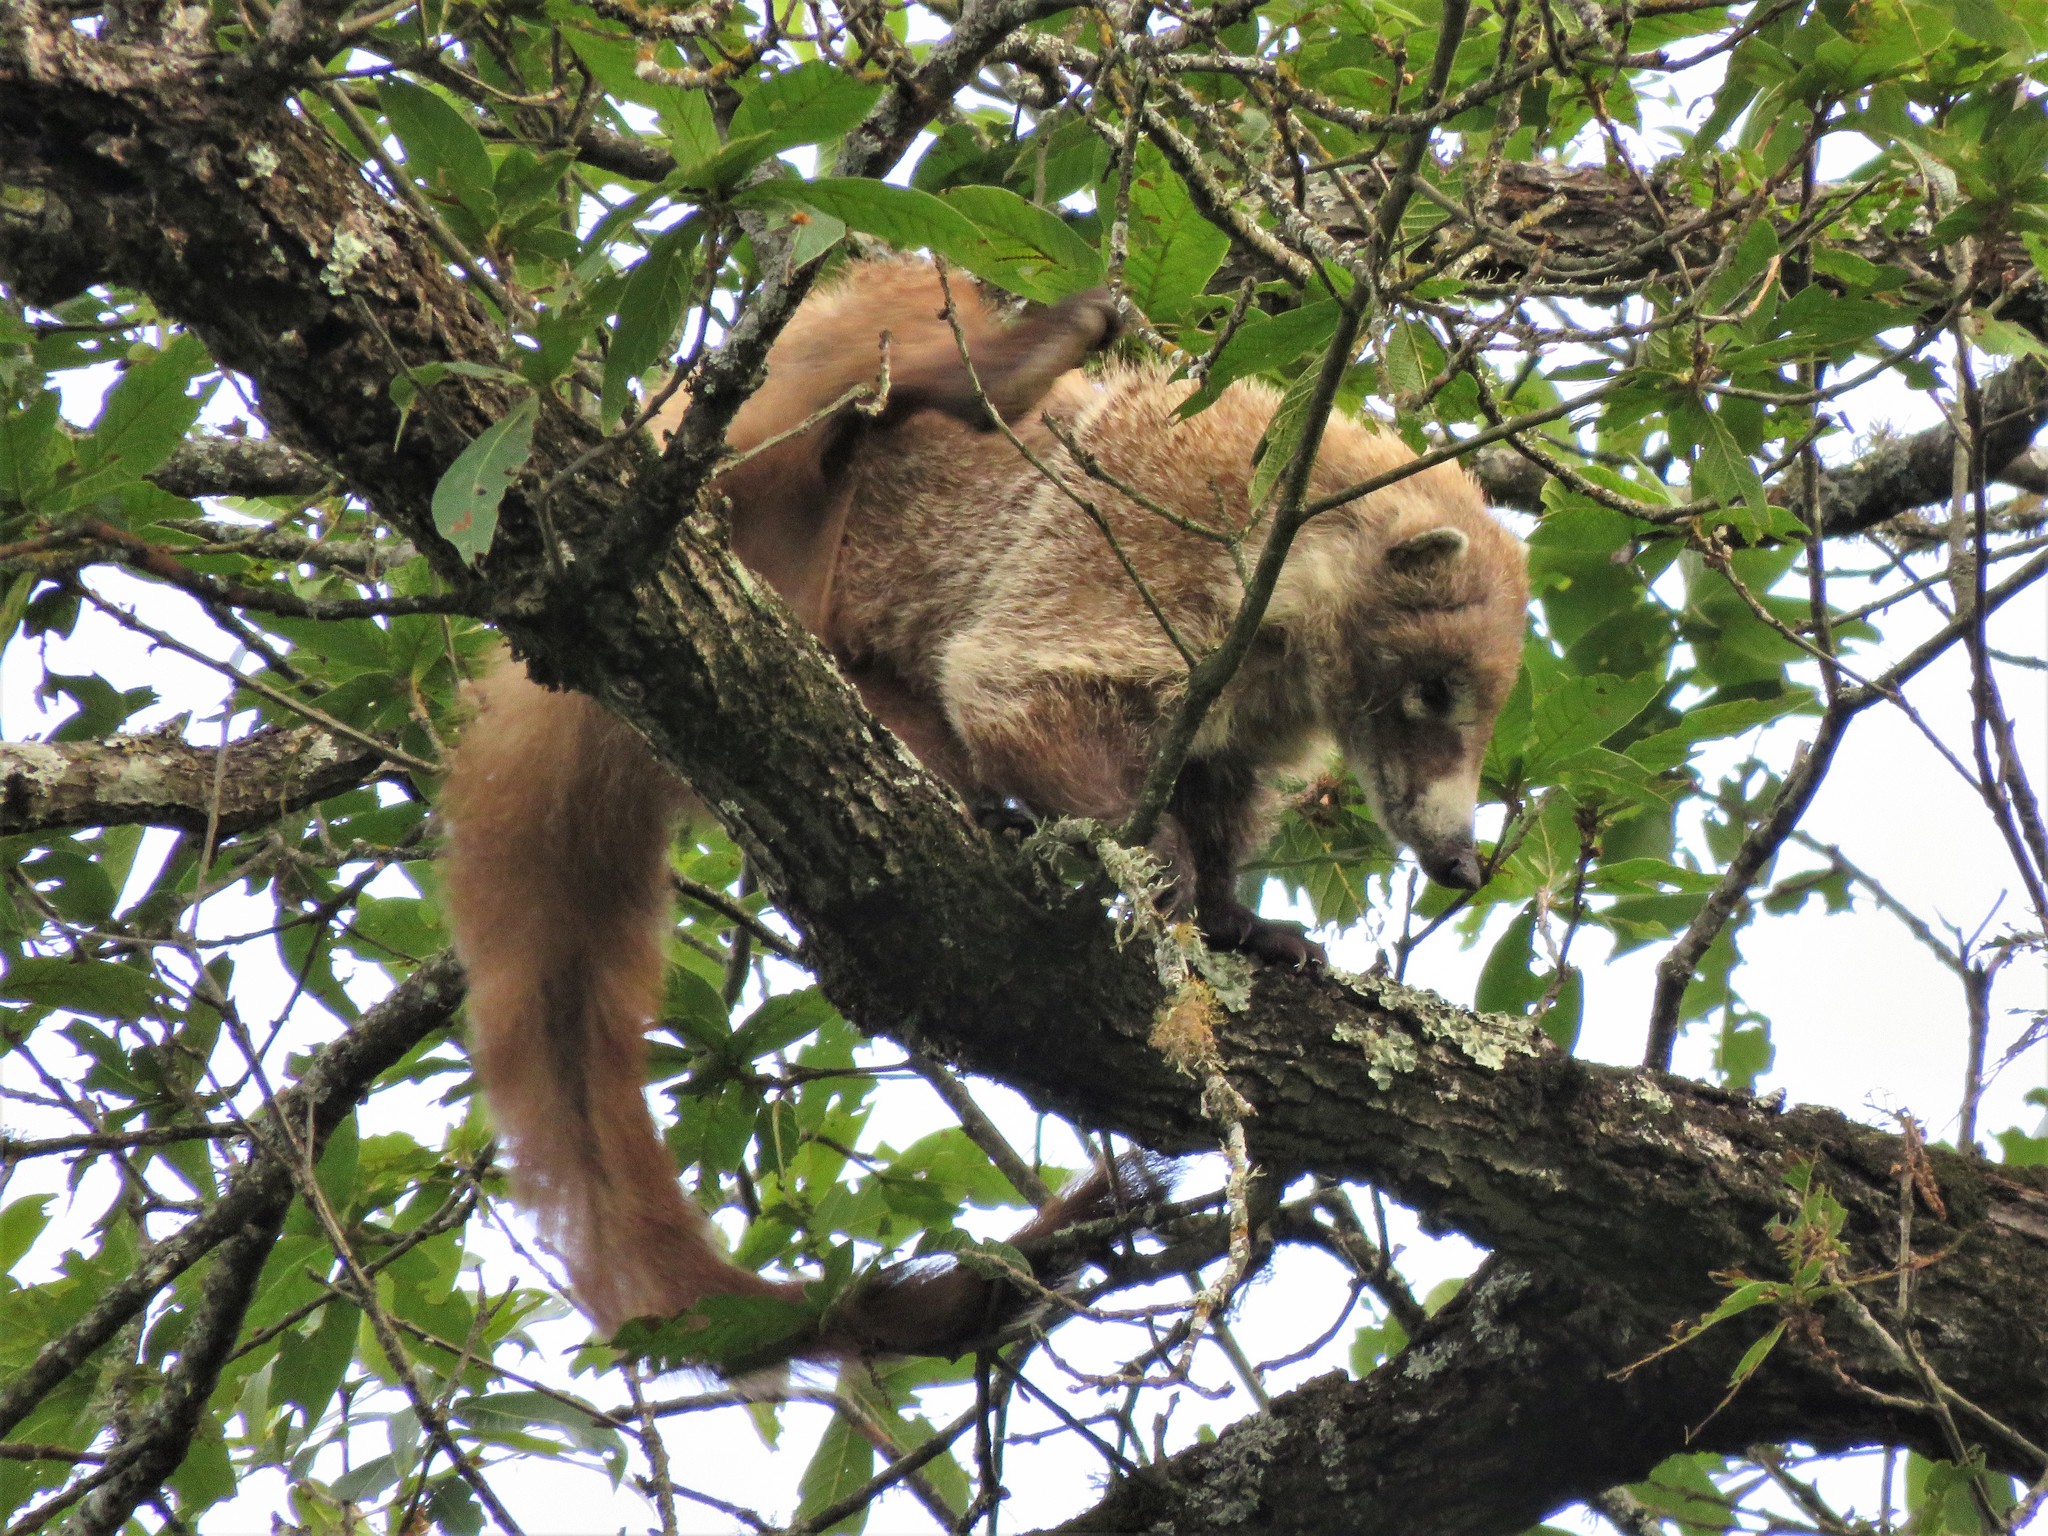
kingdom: Animalia
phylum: Chordata
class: Mammalia
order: Carnivora
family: Procyonidae
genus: Nasua
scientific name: Nasua narica
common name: White-nosed coati
